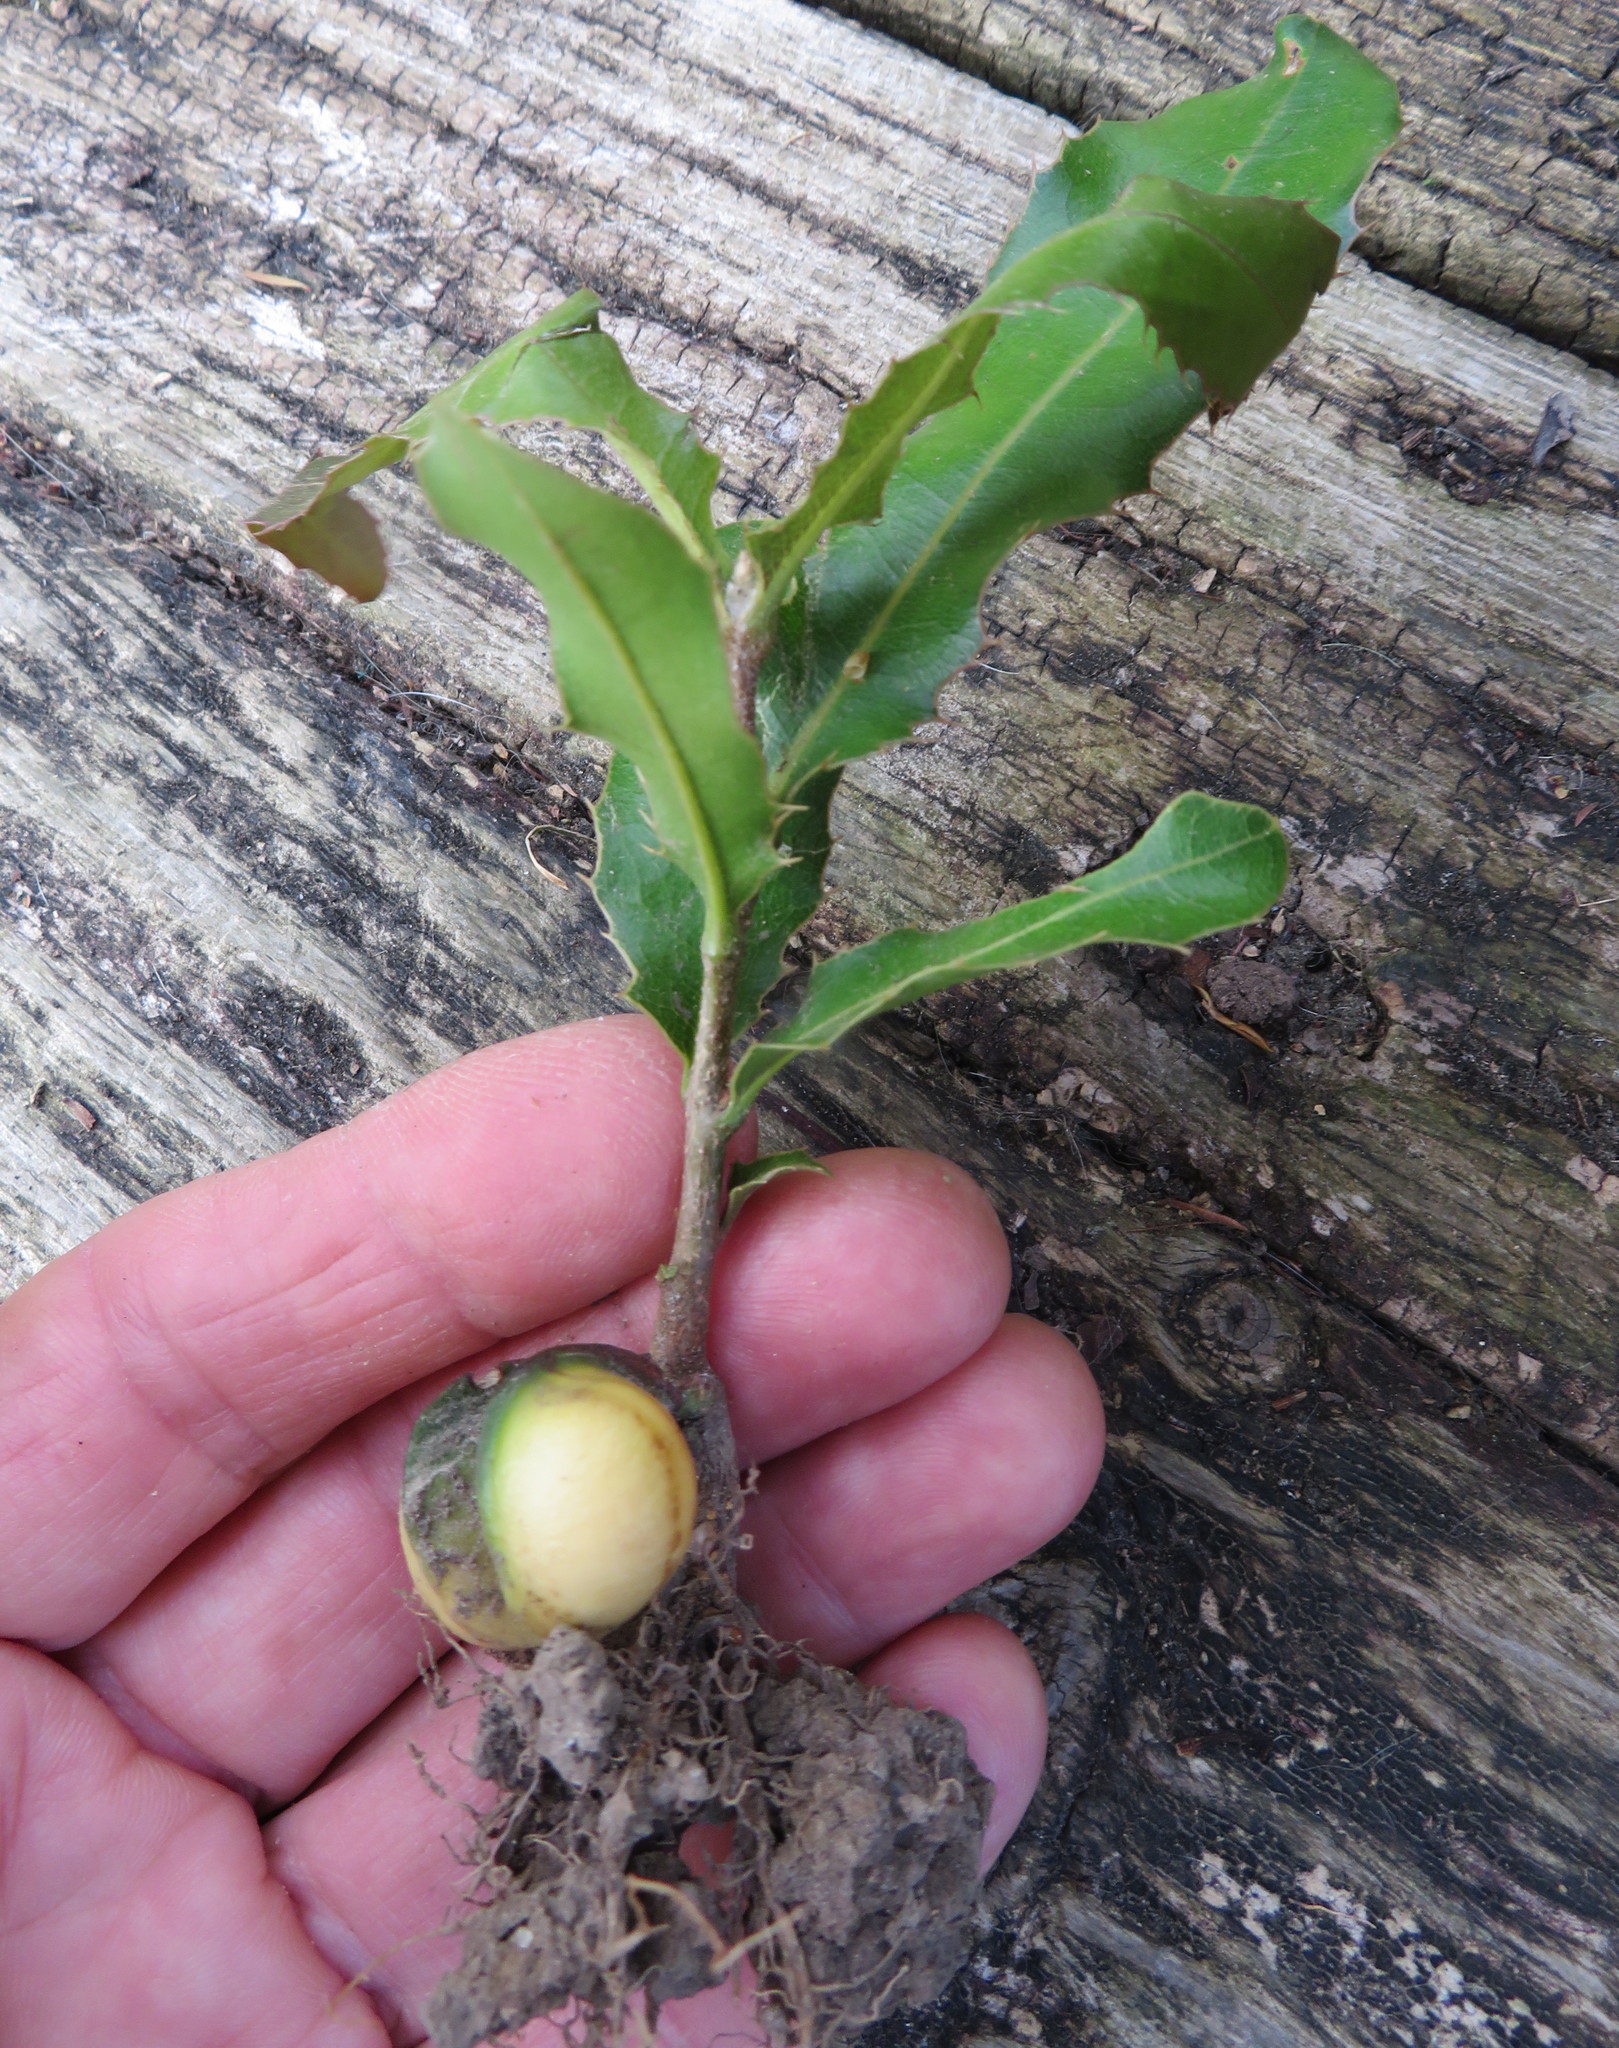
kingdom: Plantae
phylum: Tracheophyta
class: Magnoliopsida
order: Proteales
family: Proteaceae
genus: Macadamia
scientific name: Macadamia tetraphylla
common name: Macadamia nut
